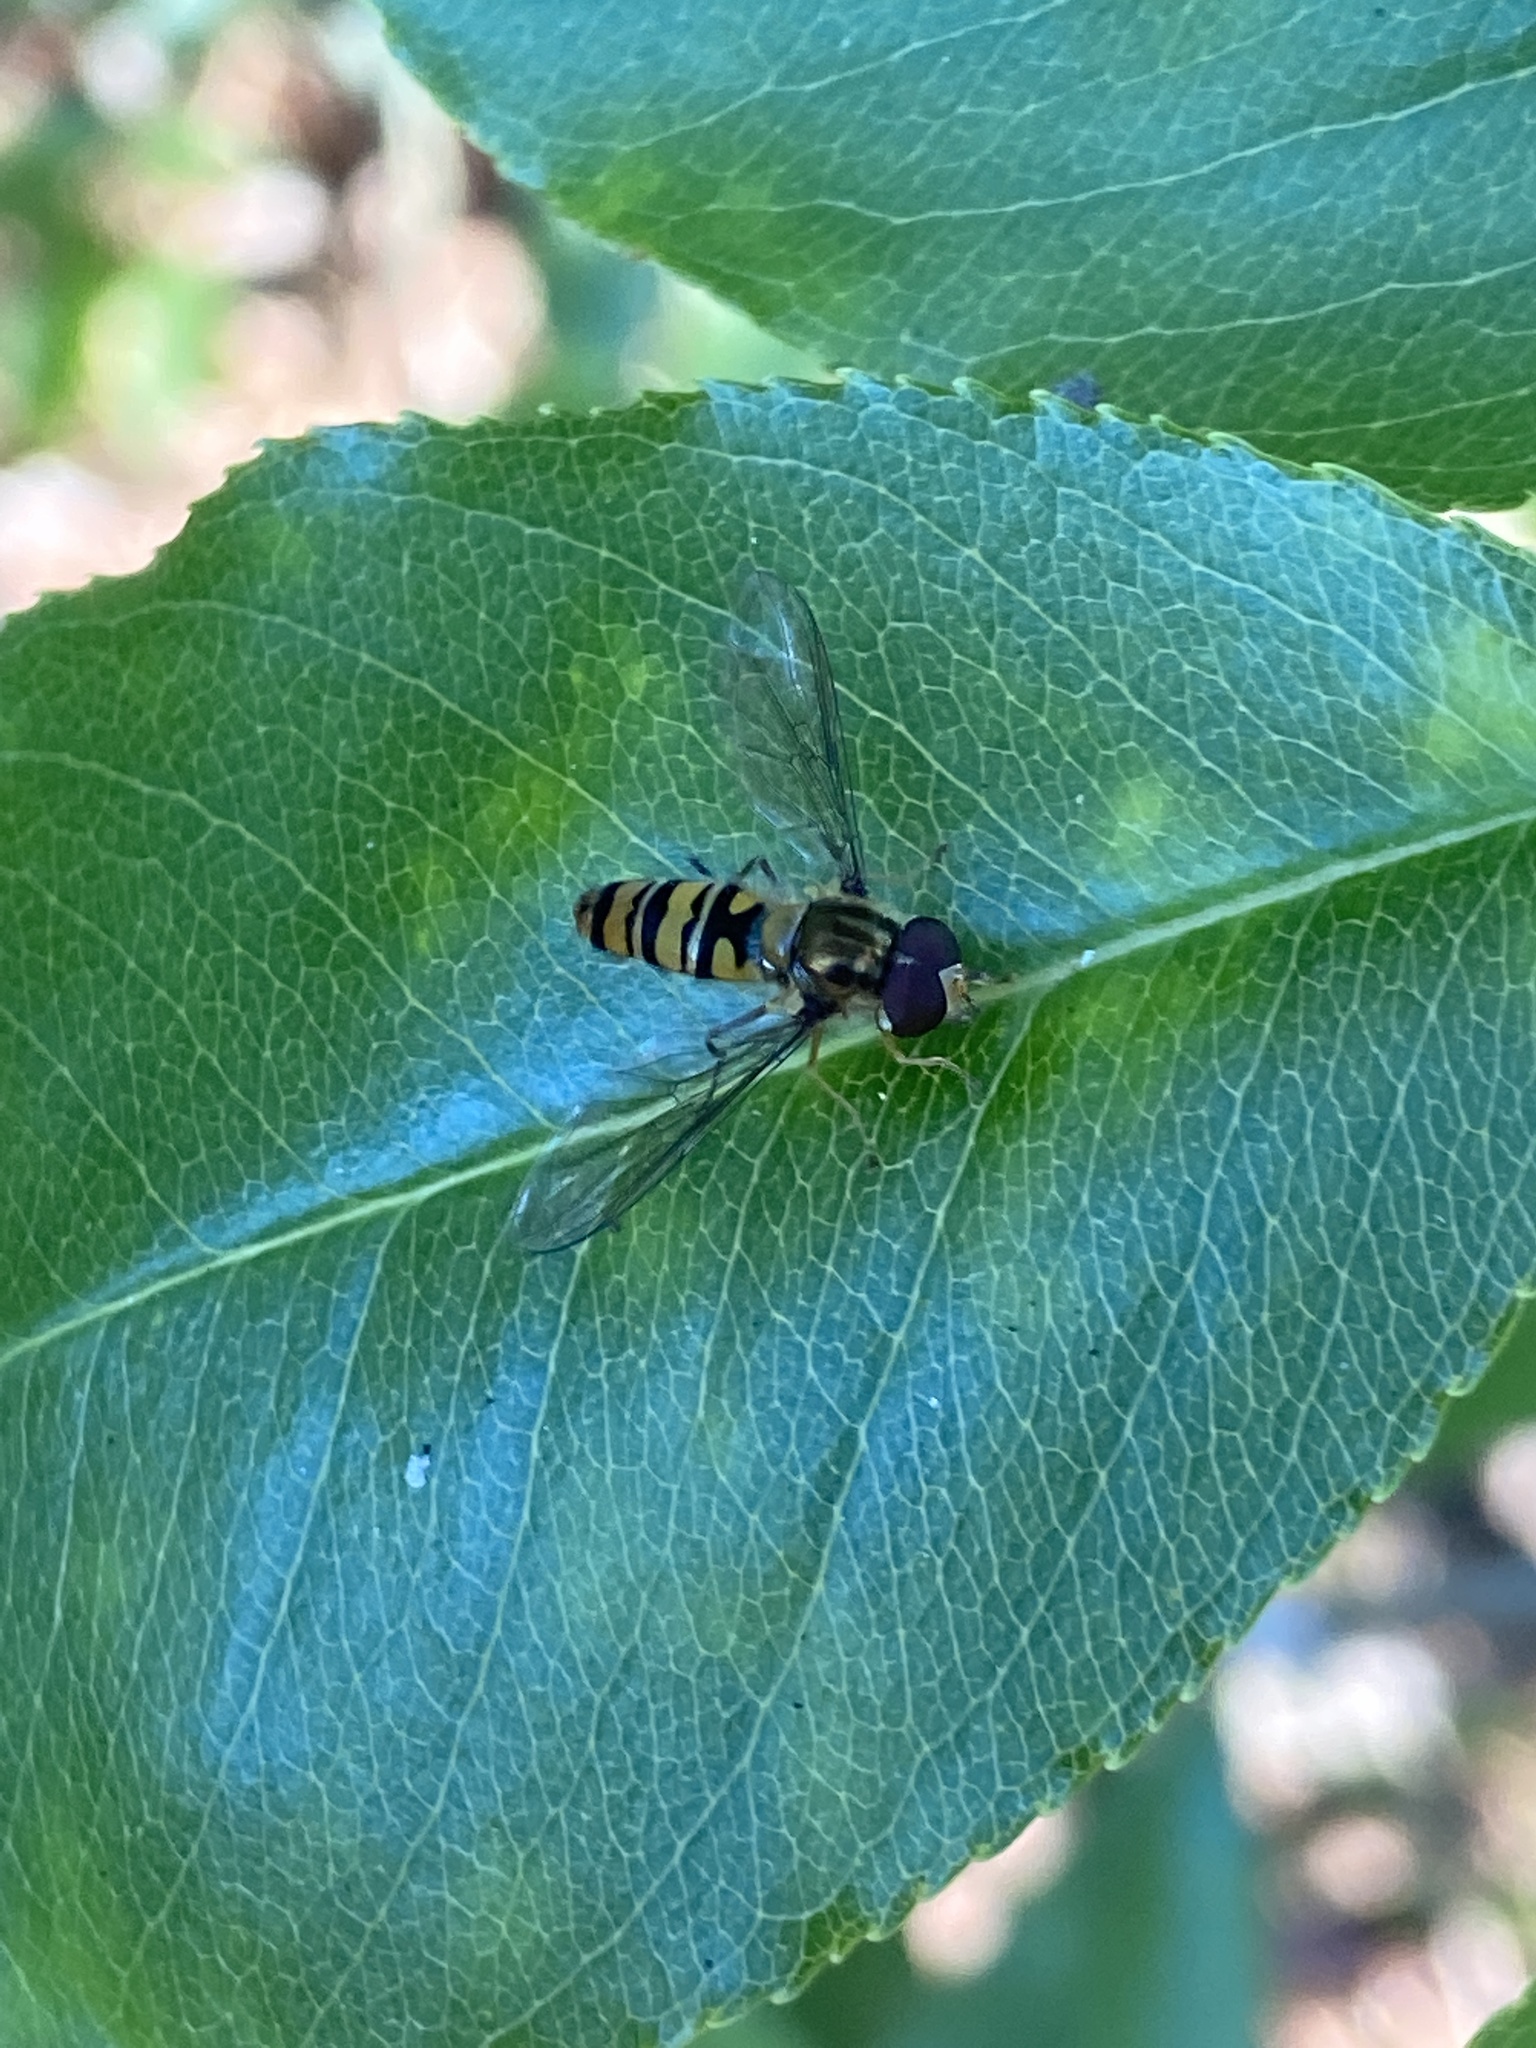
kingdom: Animalia
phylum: Arthropoda
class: Insecta
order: Diptera
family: Syrphidae
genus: Episyrphus
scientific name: Episyrphus balteatus
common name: Marmalade hoverfly
